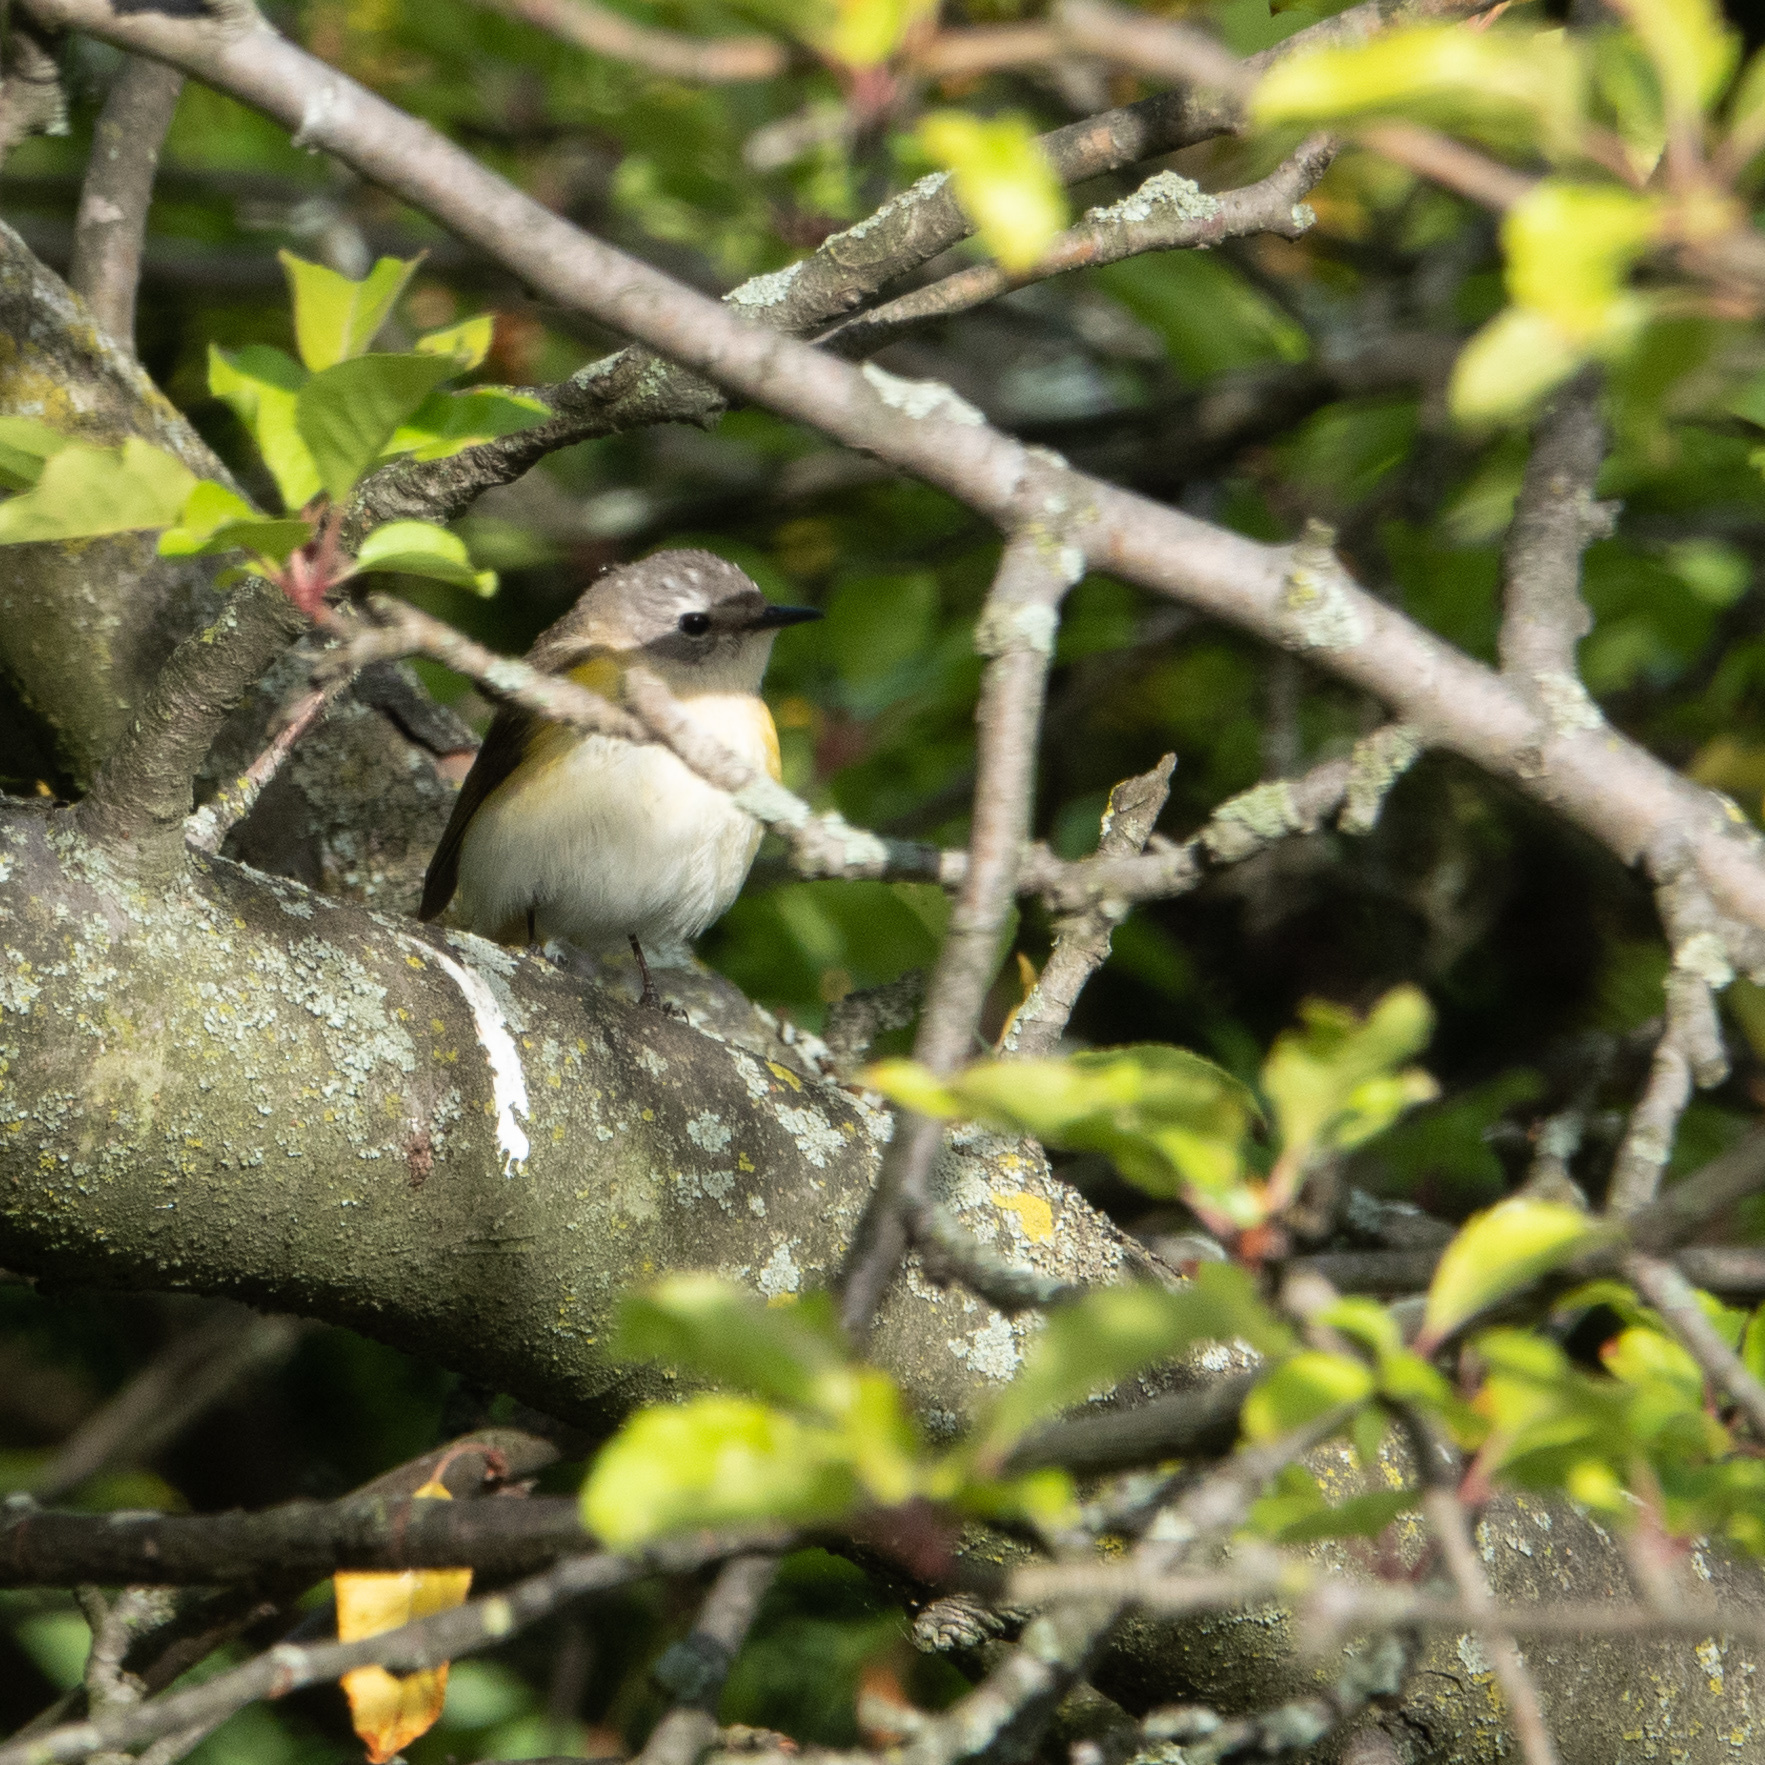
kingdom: Animalia
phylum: Chordata
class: Aves
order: Passeriformes
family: Parulidae
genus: Setophaga
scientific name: Setophaga ruticilla
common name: American redstart
